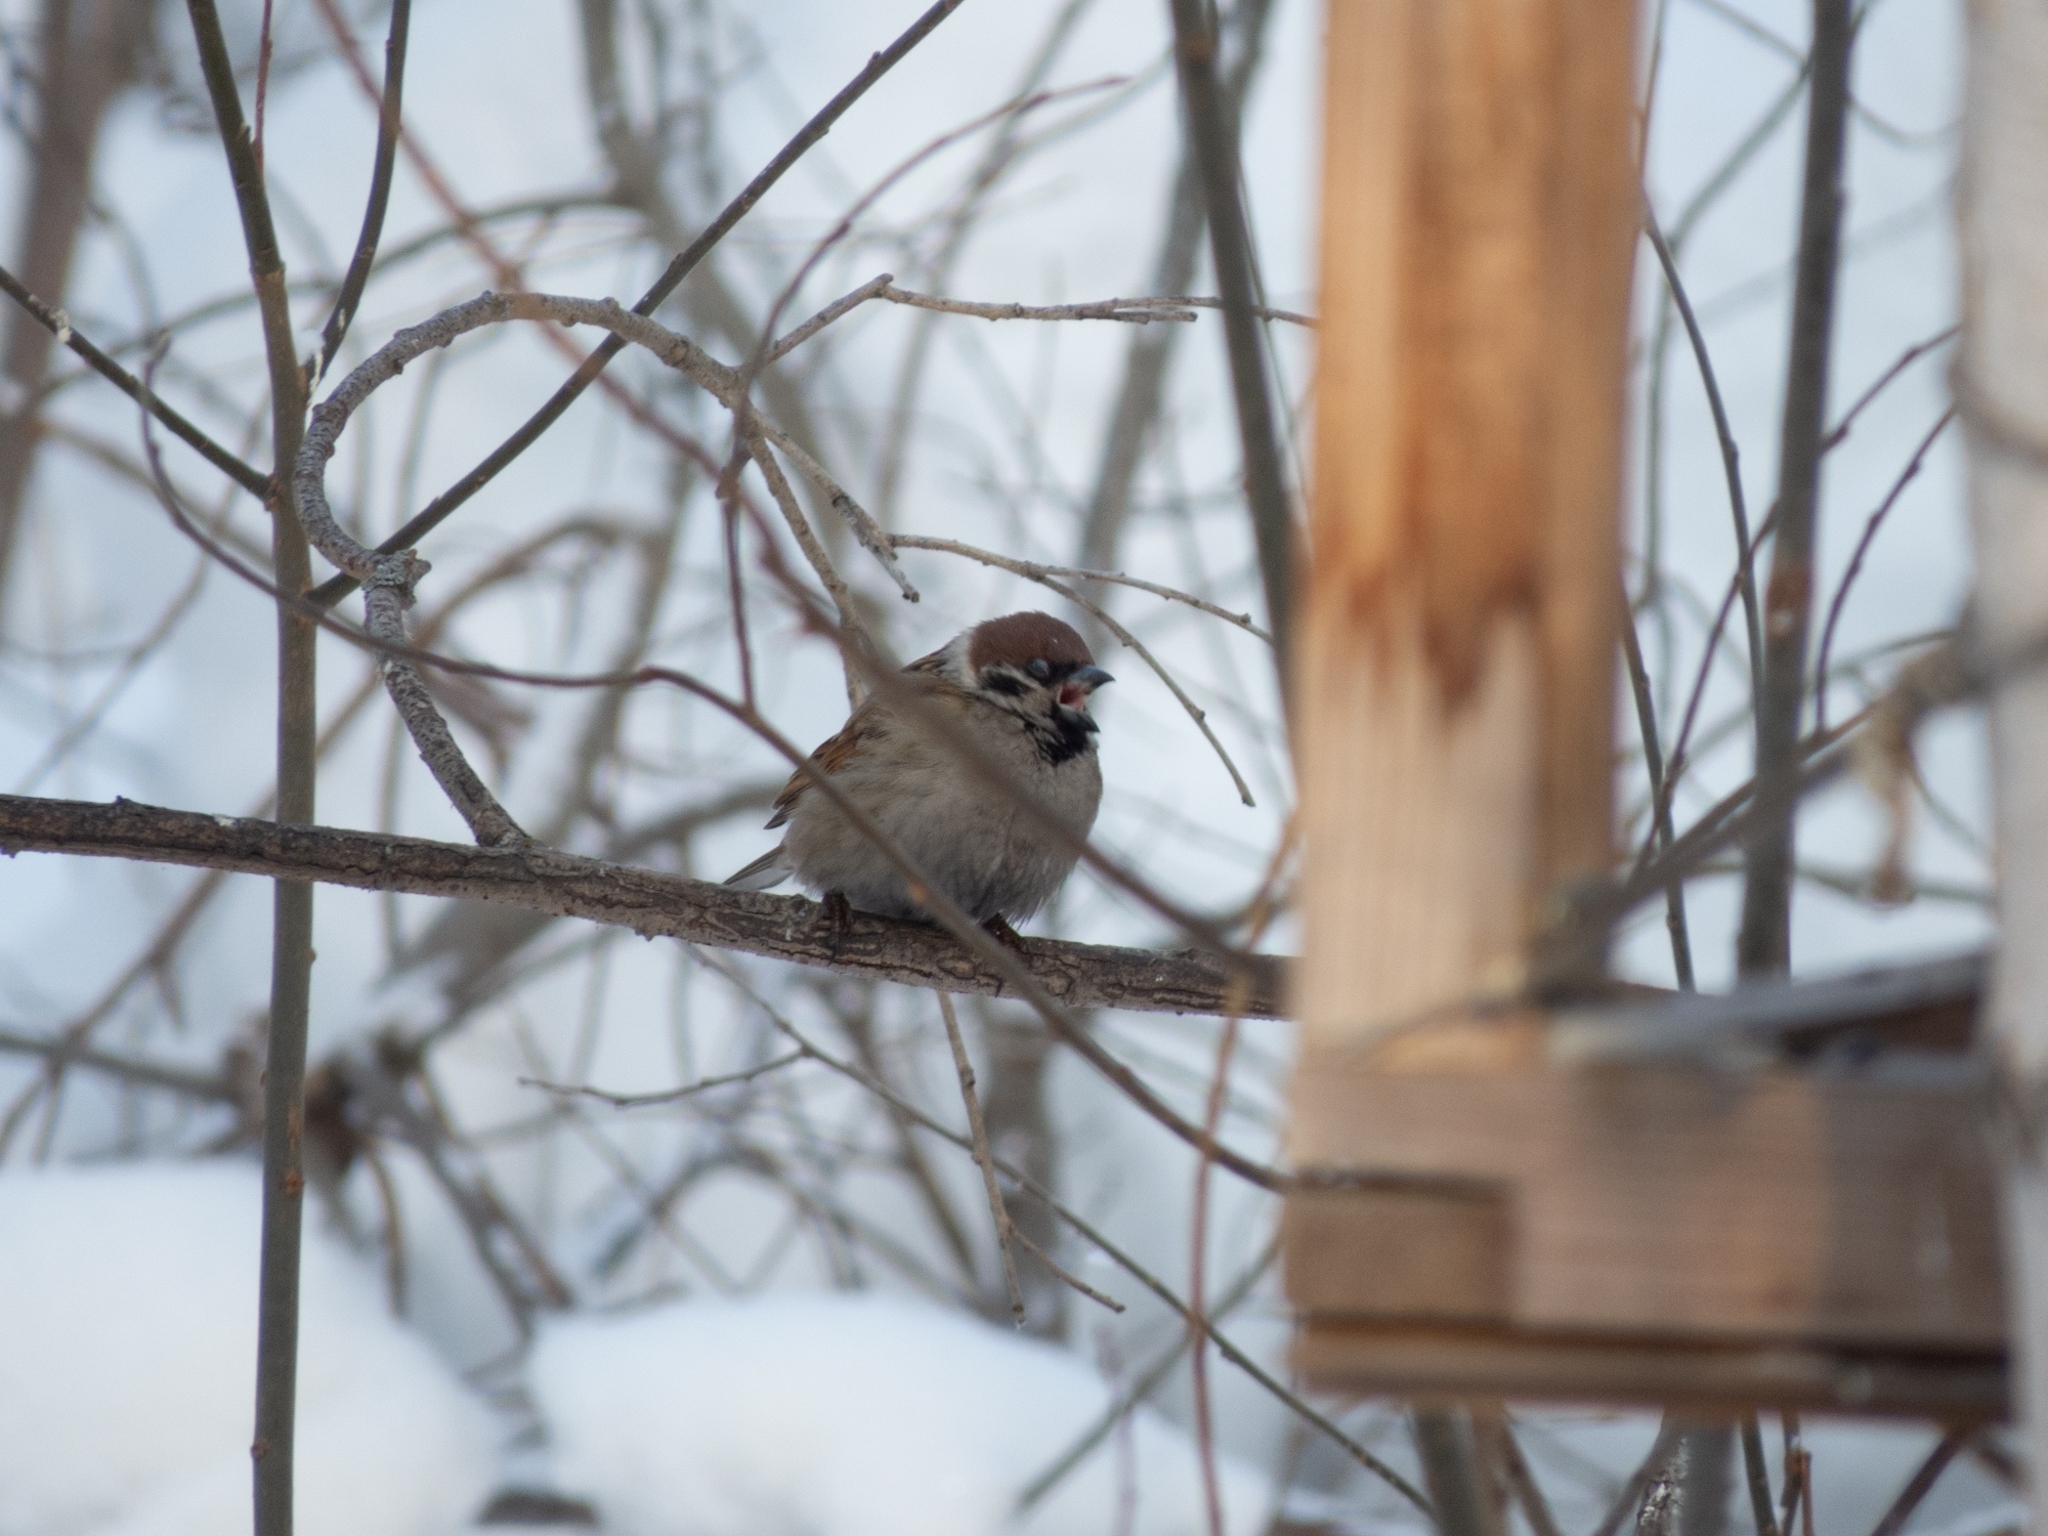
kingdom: Animalia
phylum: Chordata
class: Aves
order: Passeriformes
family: Passeridae
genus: Passer
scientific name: Passer montanus
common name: Eurasian tree sparrow
